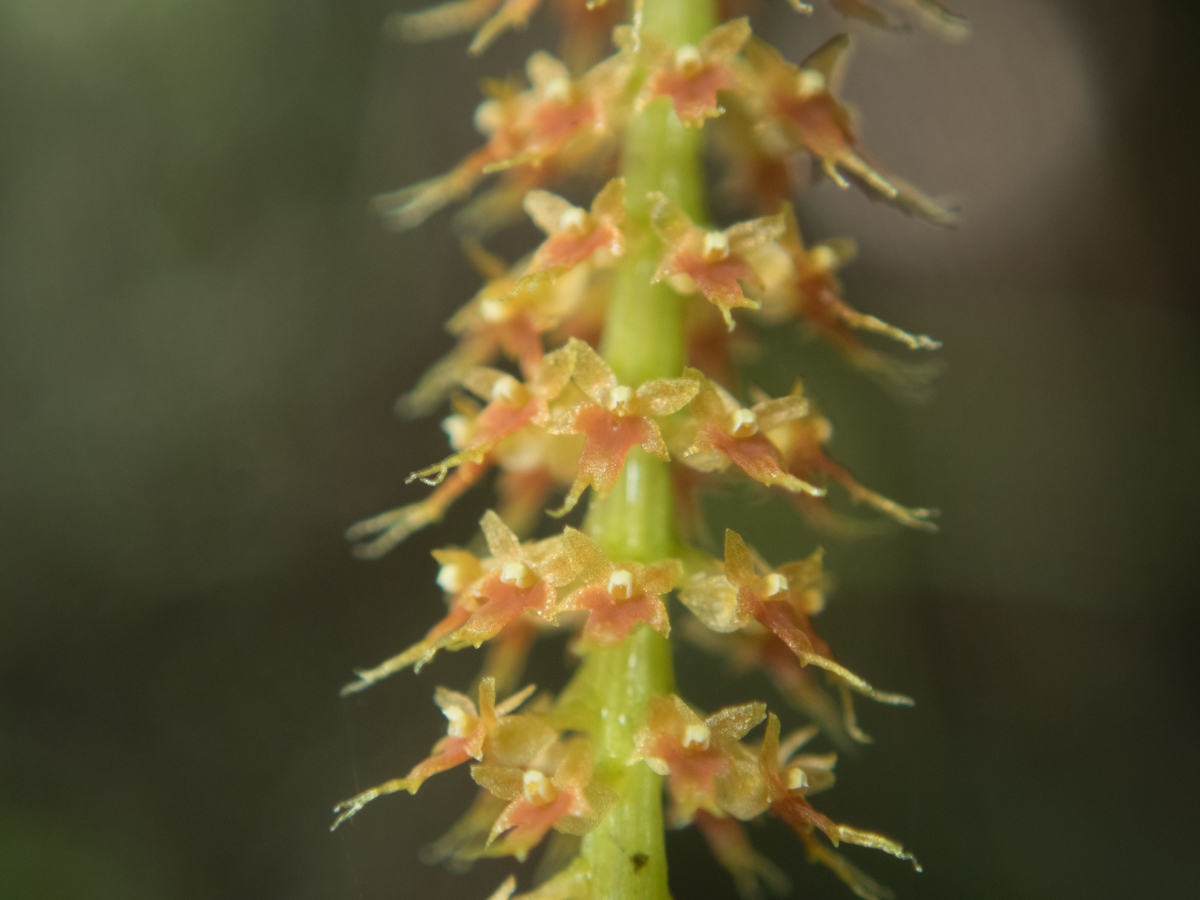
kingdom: Plantae
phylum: Tracheophyta
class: Liliopsida
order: Asparagales
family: Orchidaceae
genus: Oberonia
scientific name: Oberonia falcata
